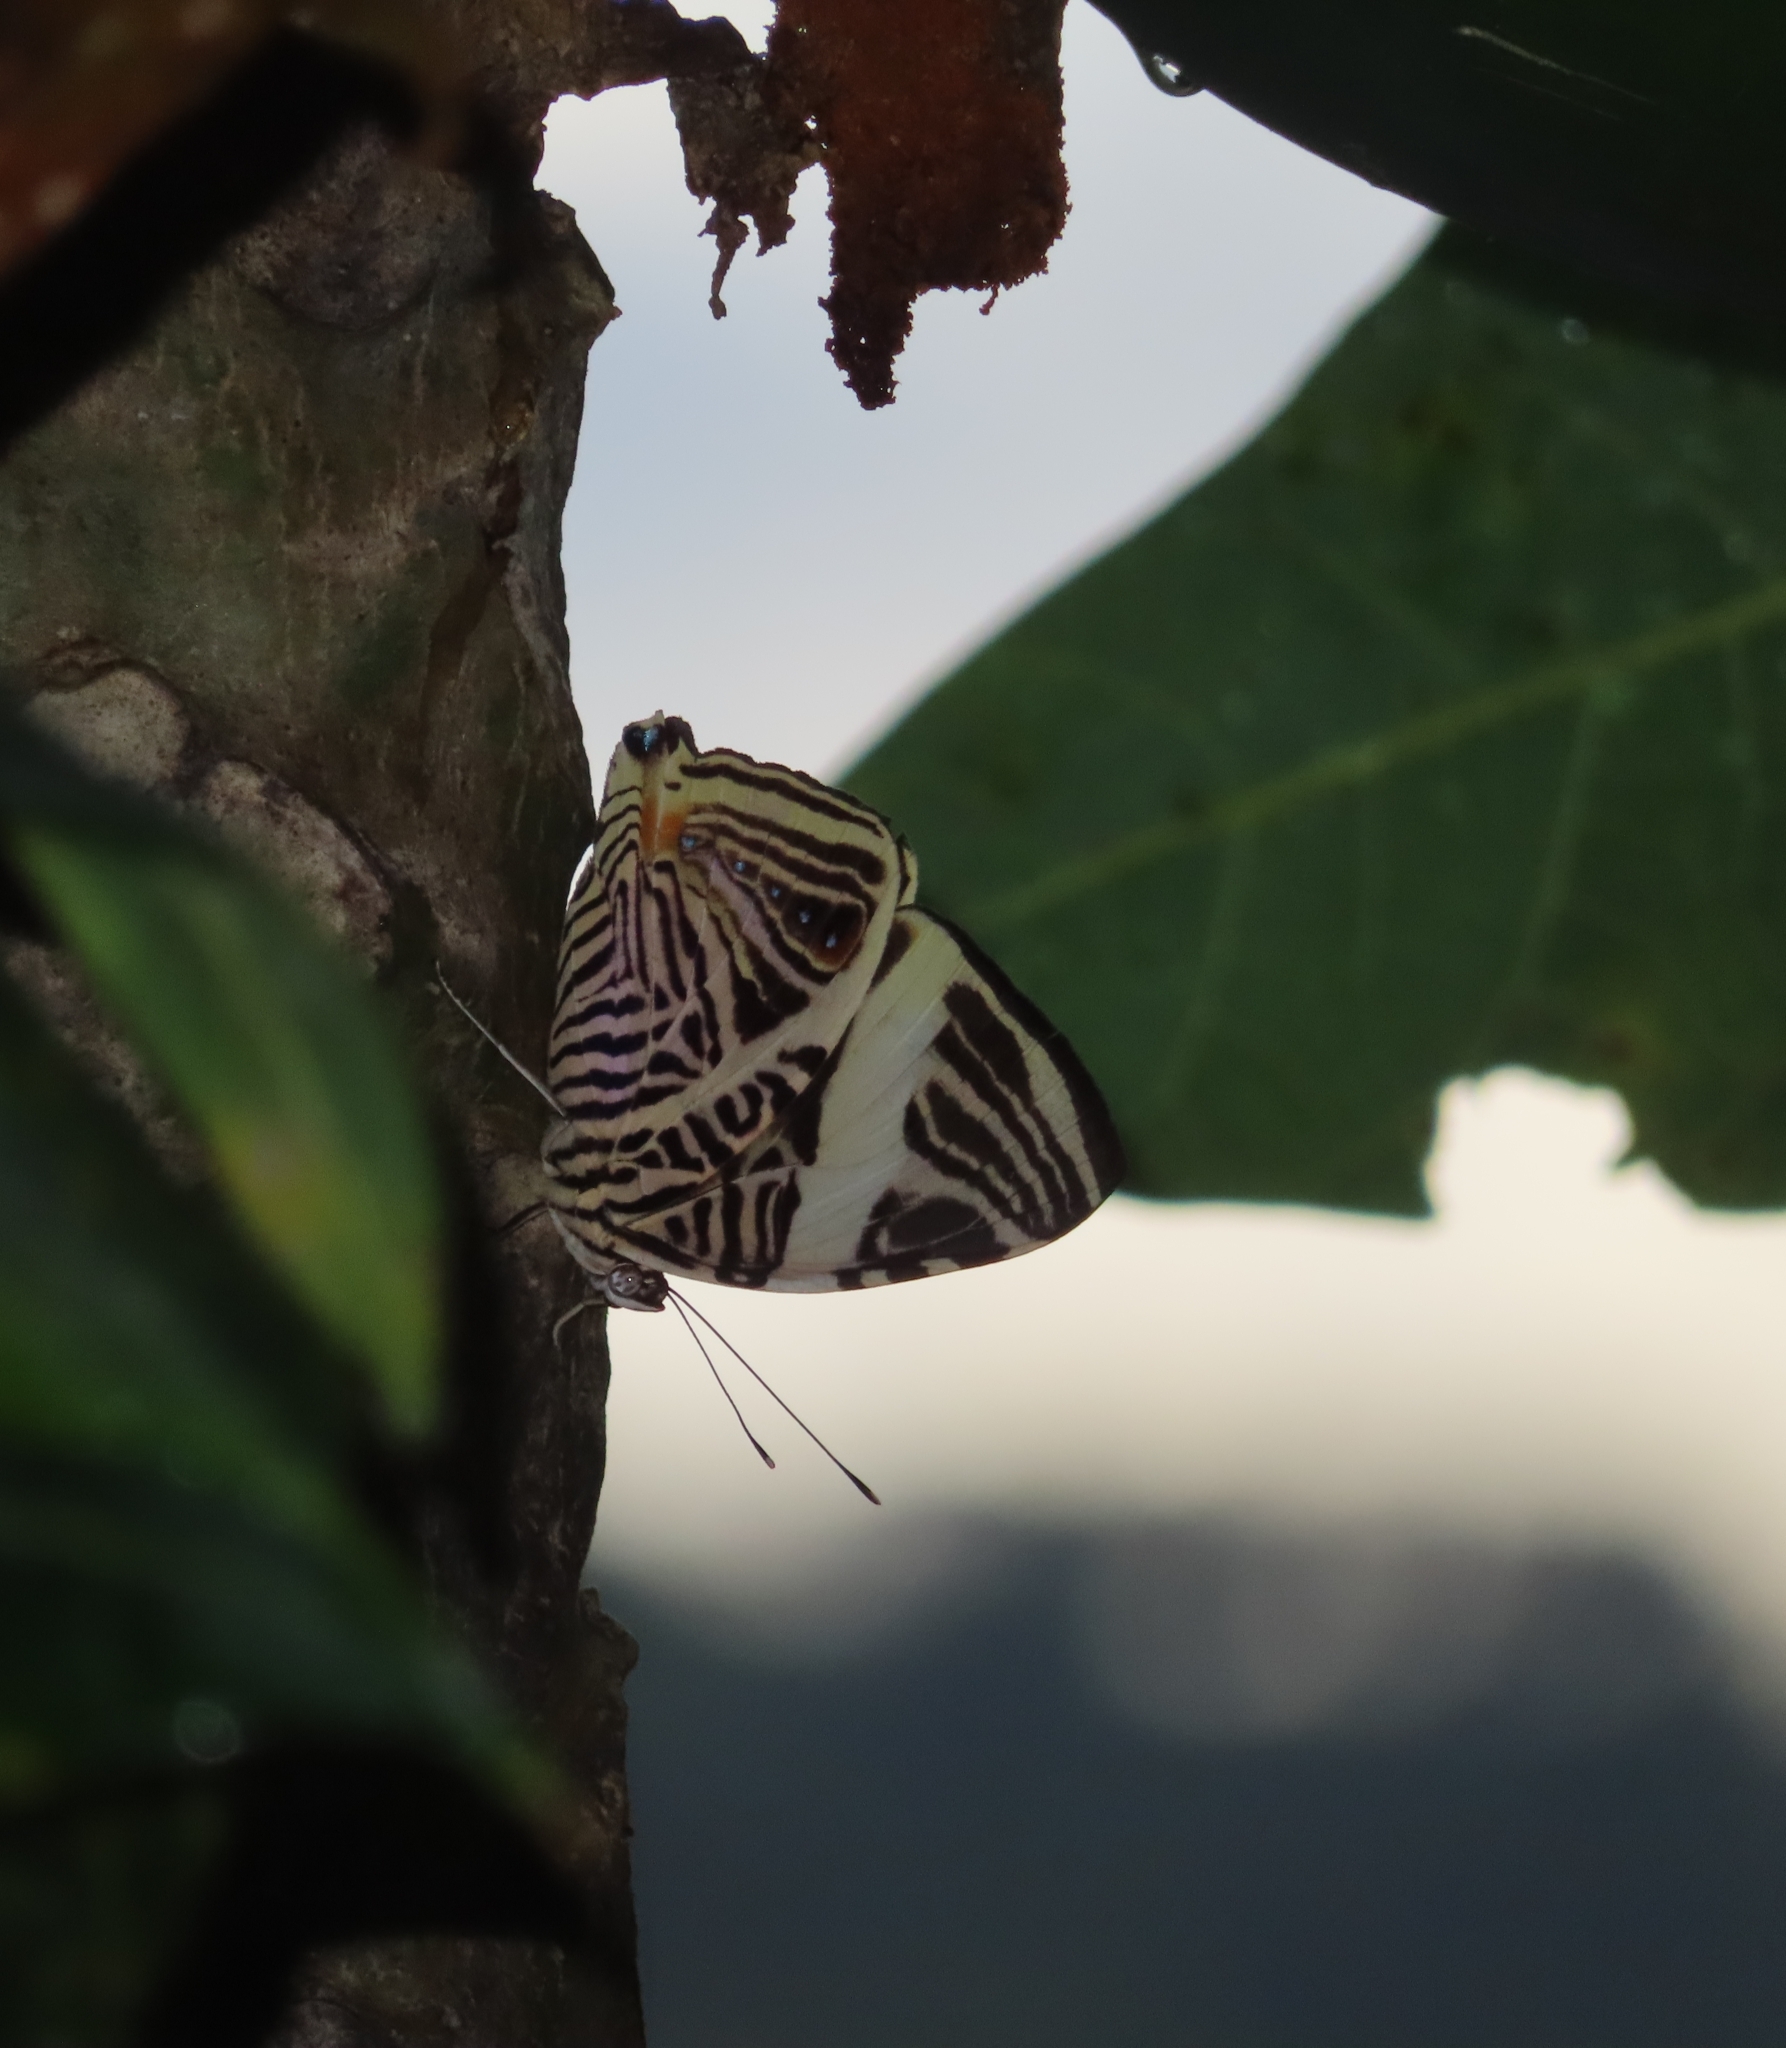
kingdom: Animalia
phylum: Arthropoda
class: Insecta
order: Lepidoptera
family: Nymphalidae
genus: Colobura
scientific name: Colobura dirce
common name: Dirce beauty
